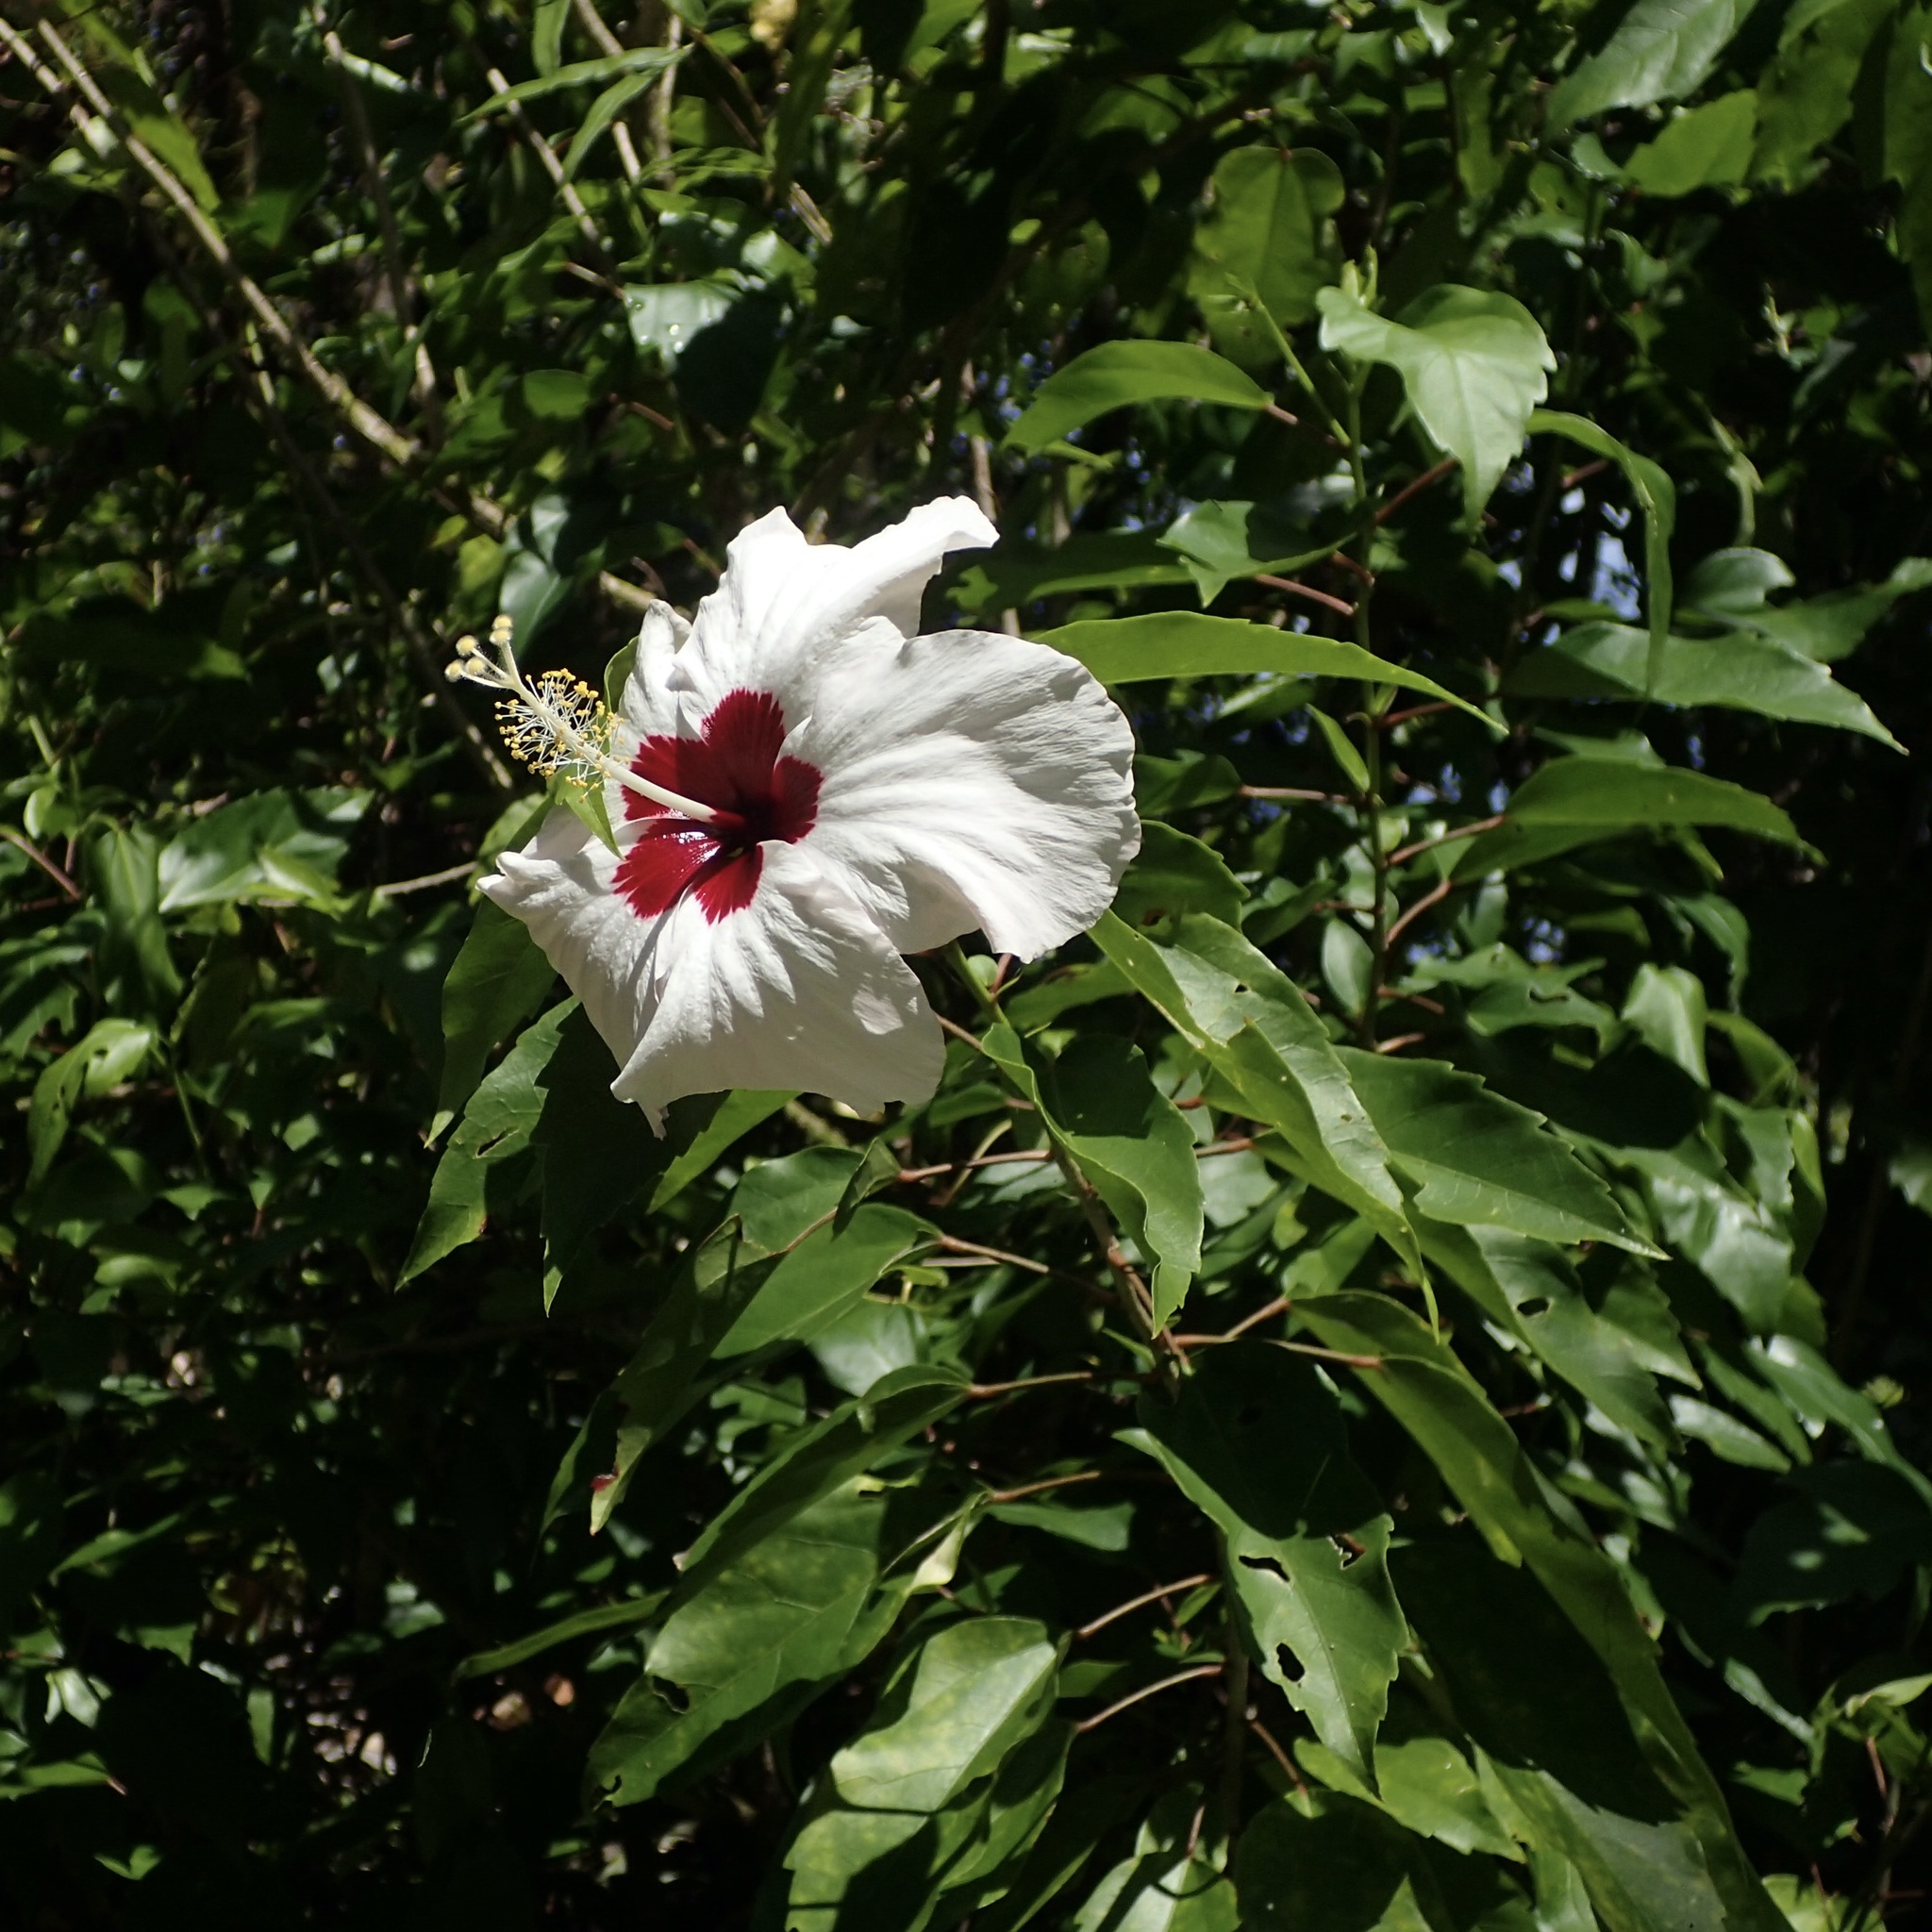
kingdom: Plantae
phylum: Tracheophyta
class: Magnoliopsida
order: Malvales
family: Malvaceae
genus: Hibiscus
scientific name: Hibiscus rosa-sinensis
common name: Hibiscus
